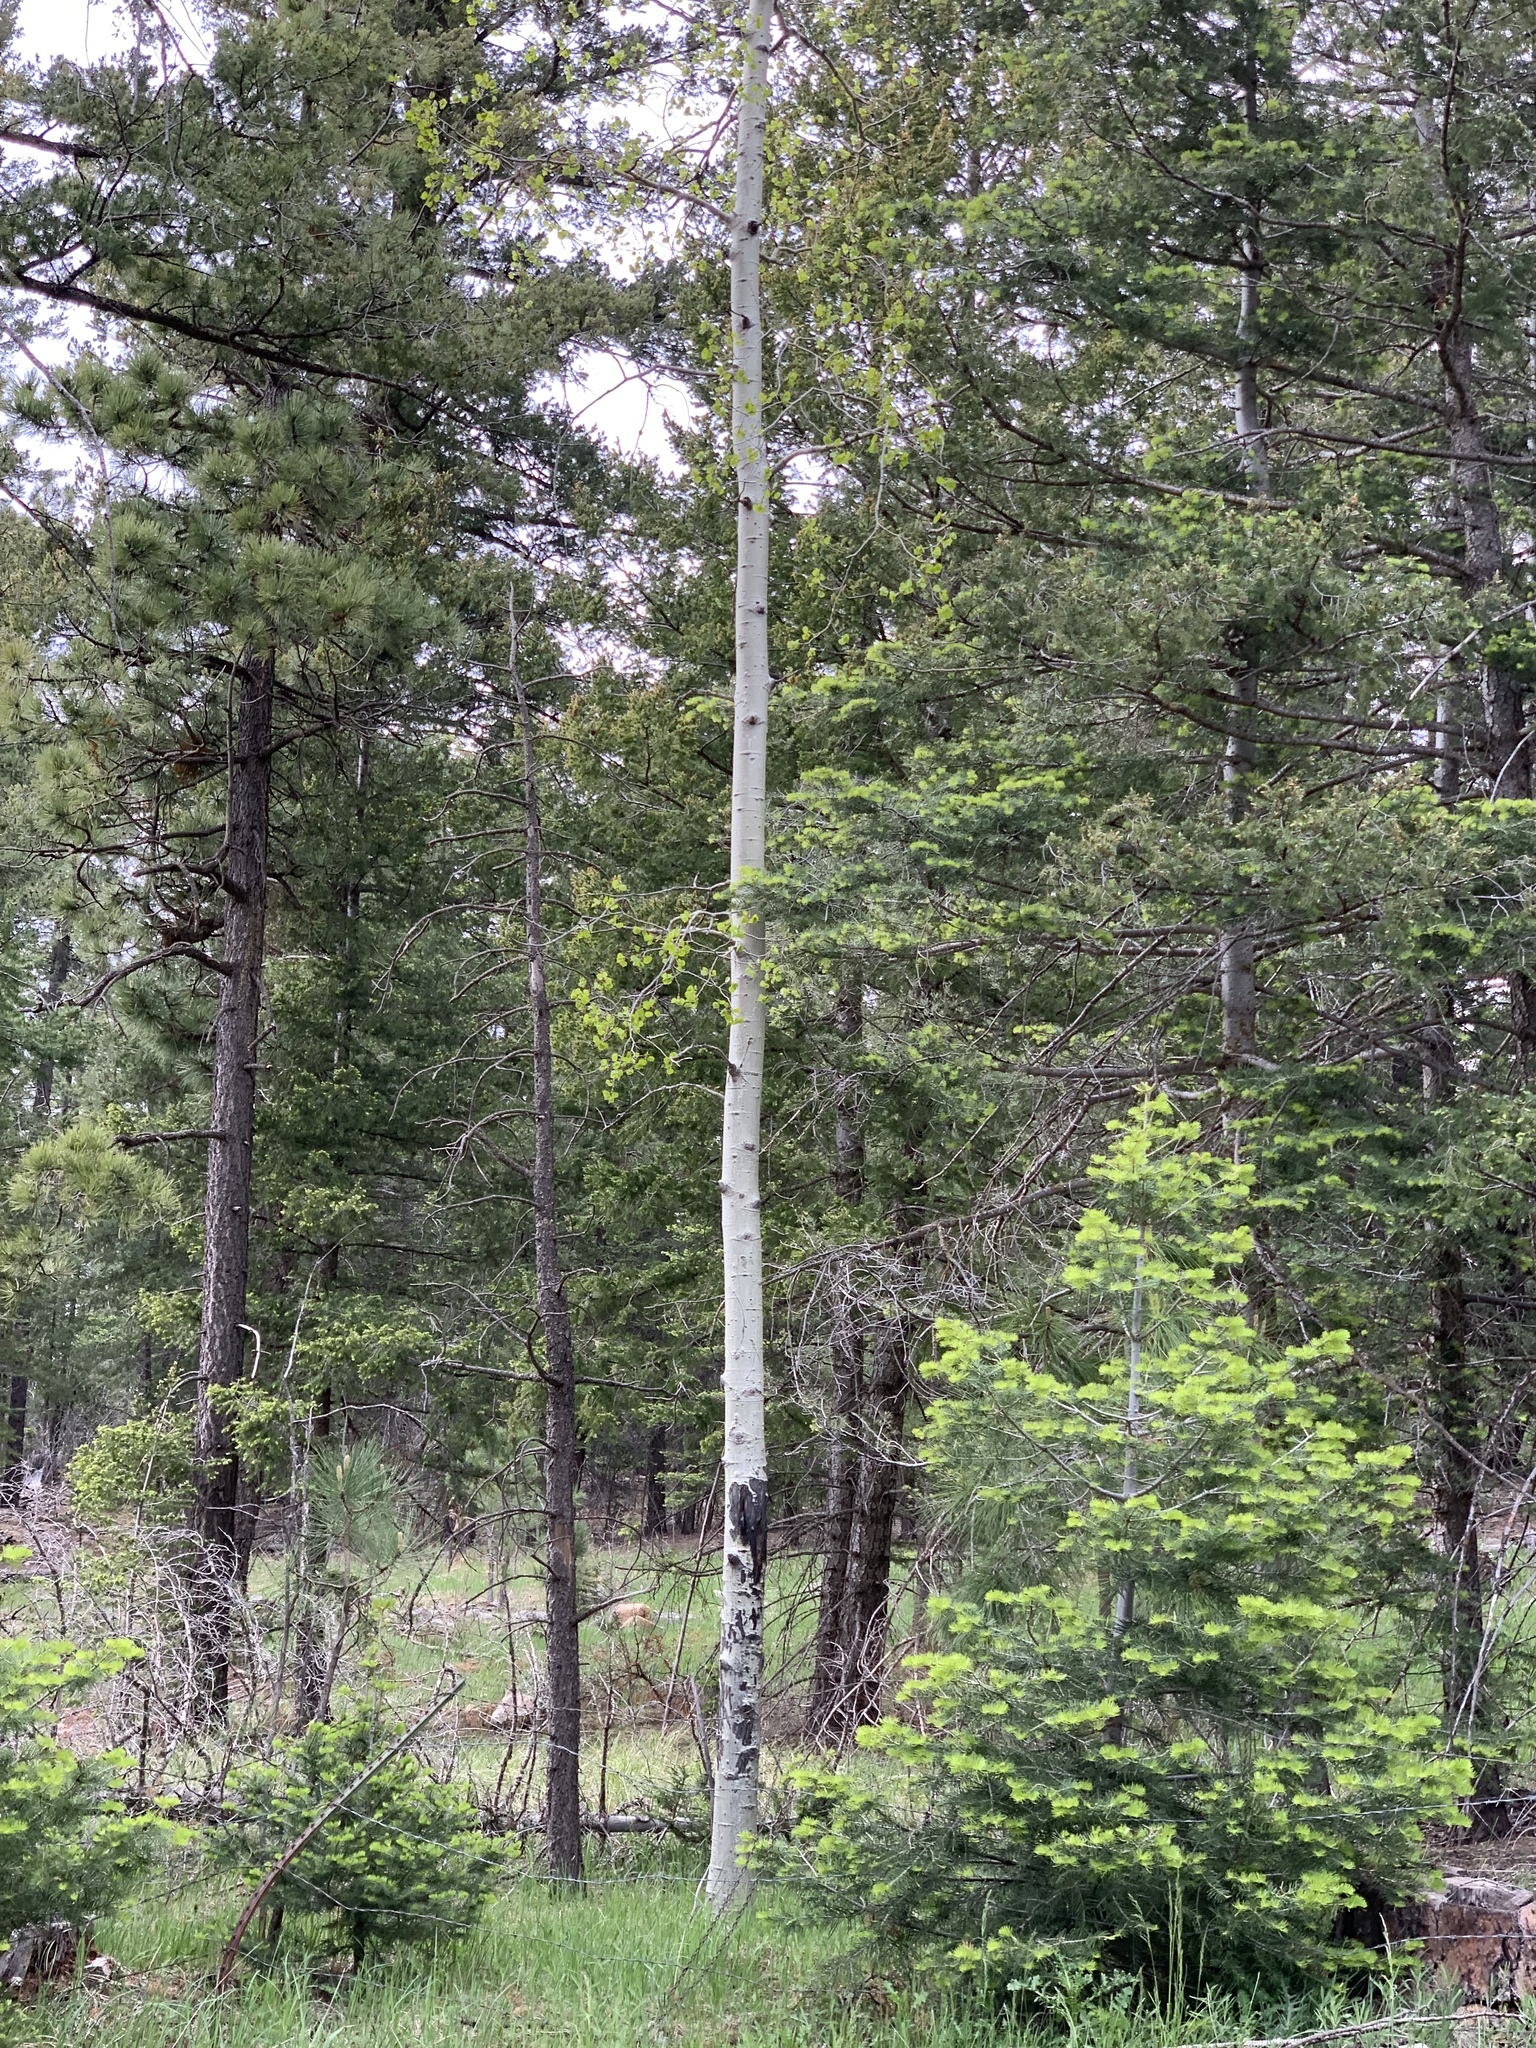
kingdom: Plantae
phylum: Tracheophyta
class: Magnoliopsida
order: Malpighiales
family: Salicaceae
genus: Populus
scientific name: Populus tremuloides
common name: Quaking aspen
